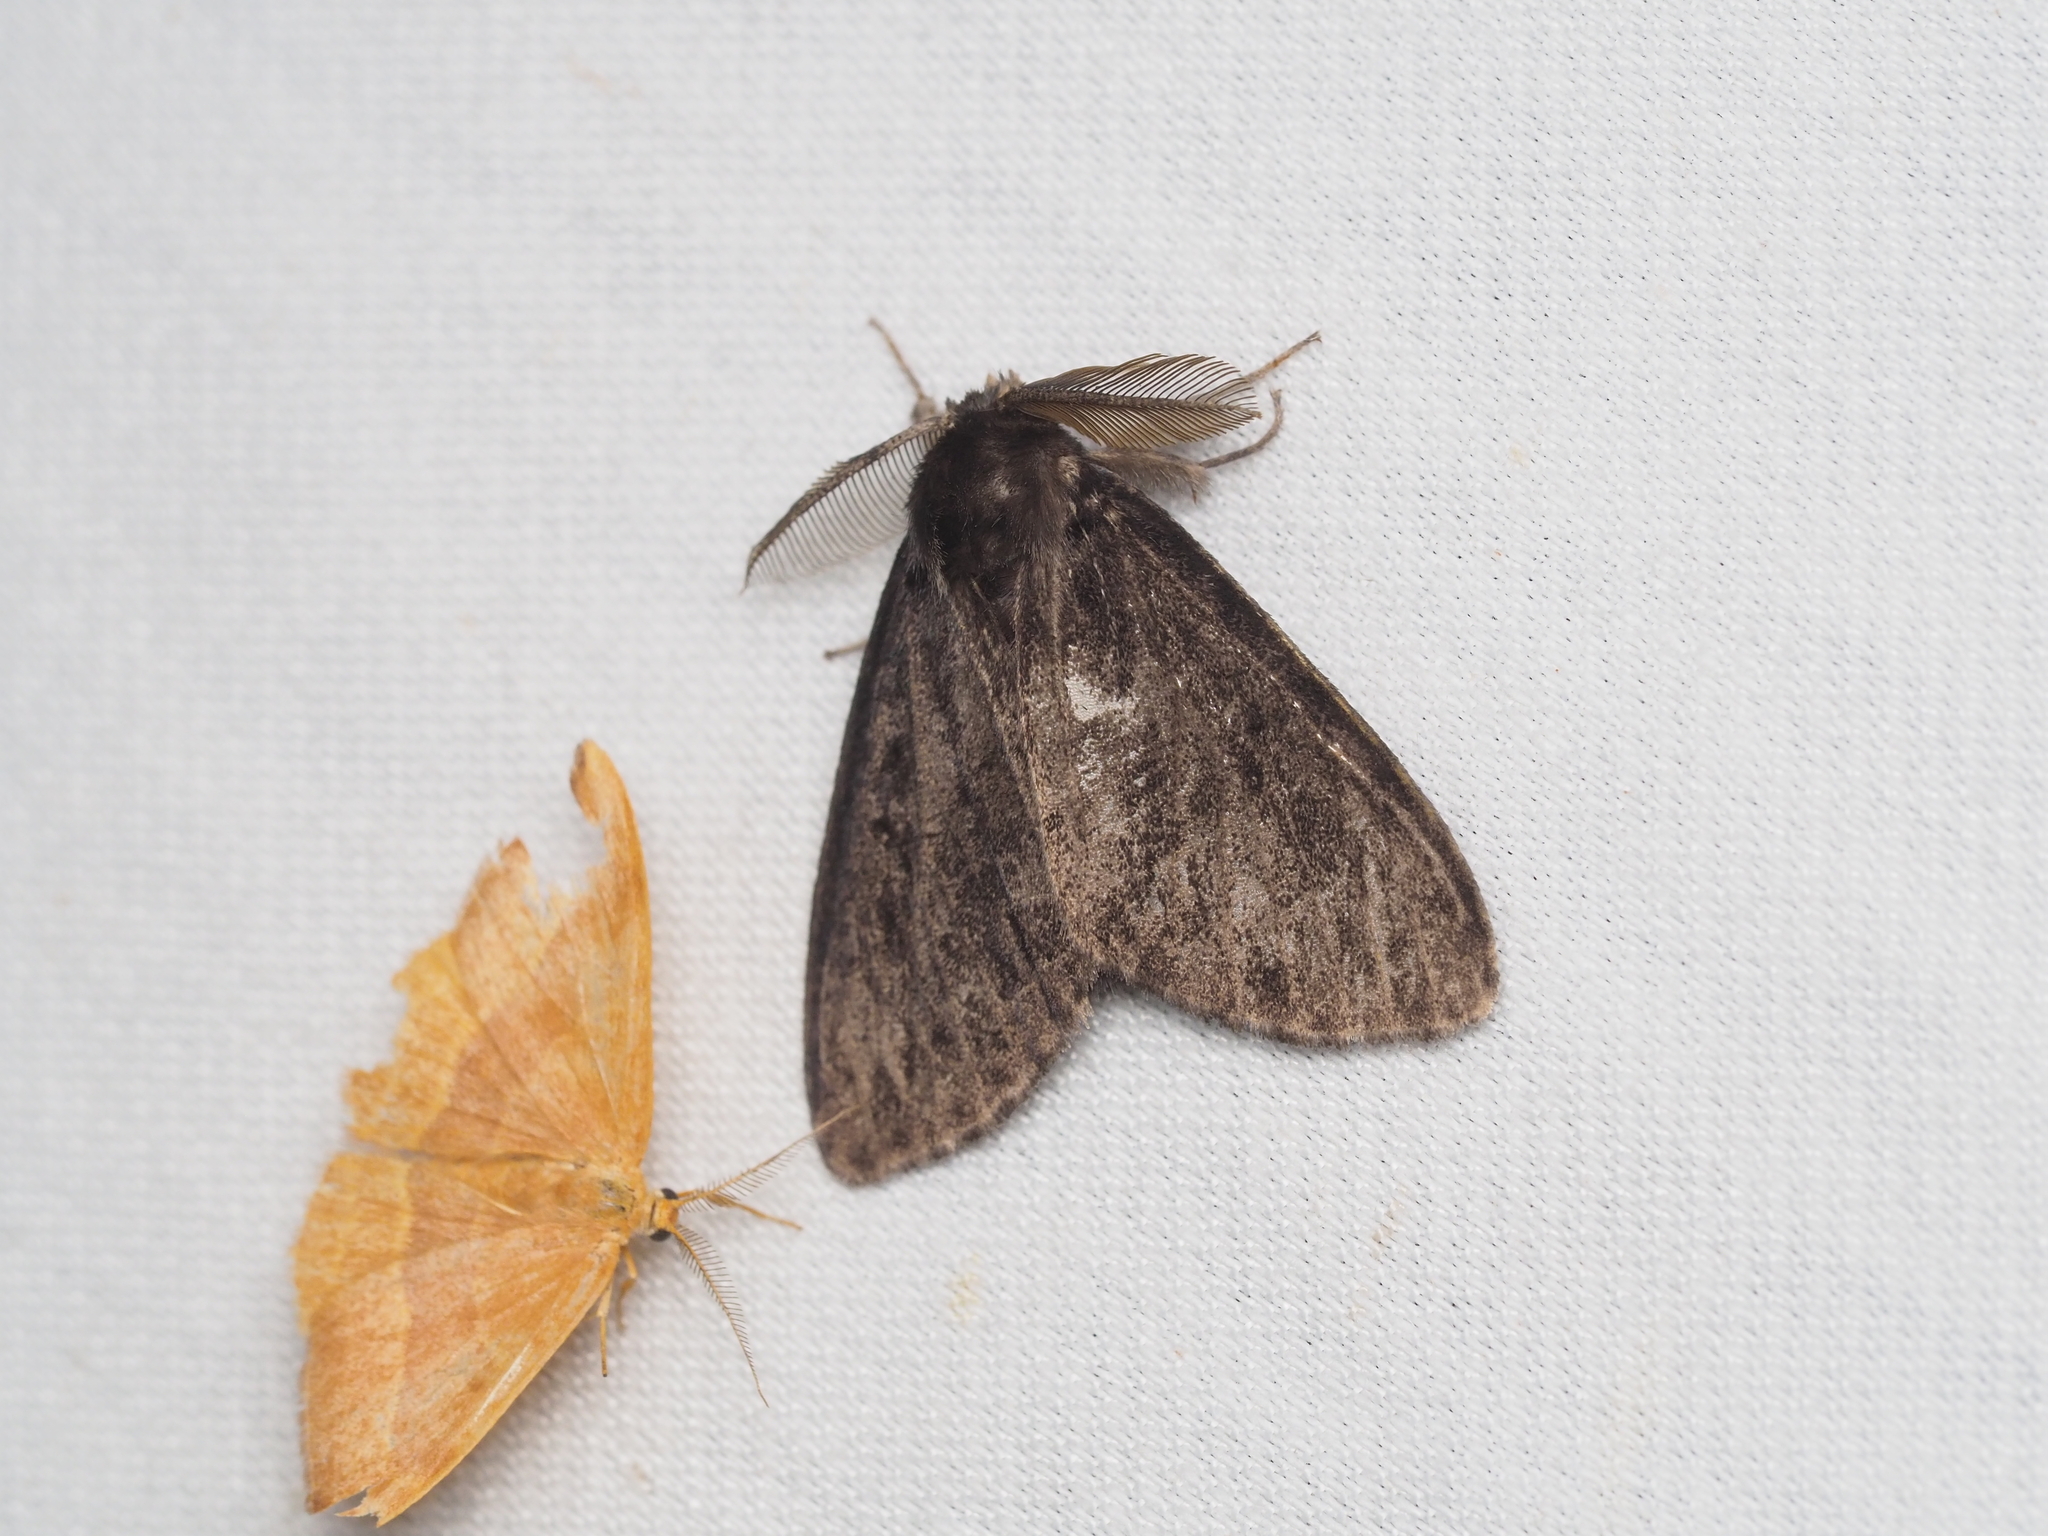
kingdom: Animalia
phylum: Arthropoda
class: Insecta
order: Lepidoptera
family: Erebidae
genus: Lymantria
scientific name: Lymantria monacha
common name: Black arches
